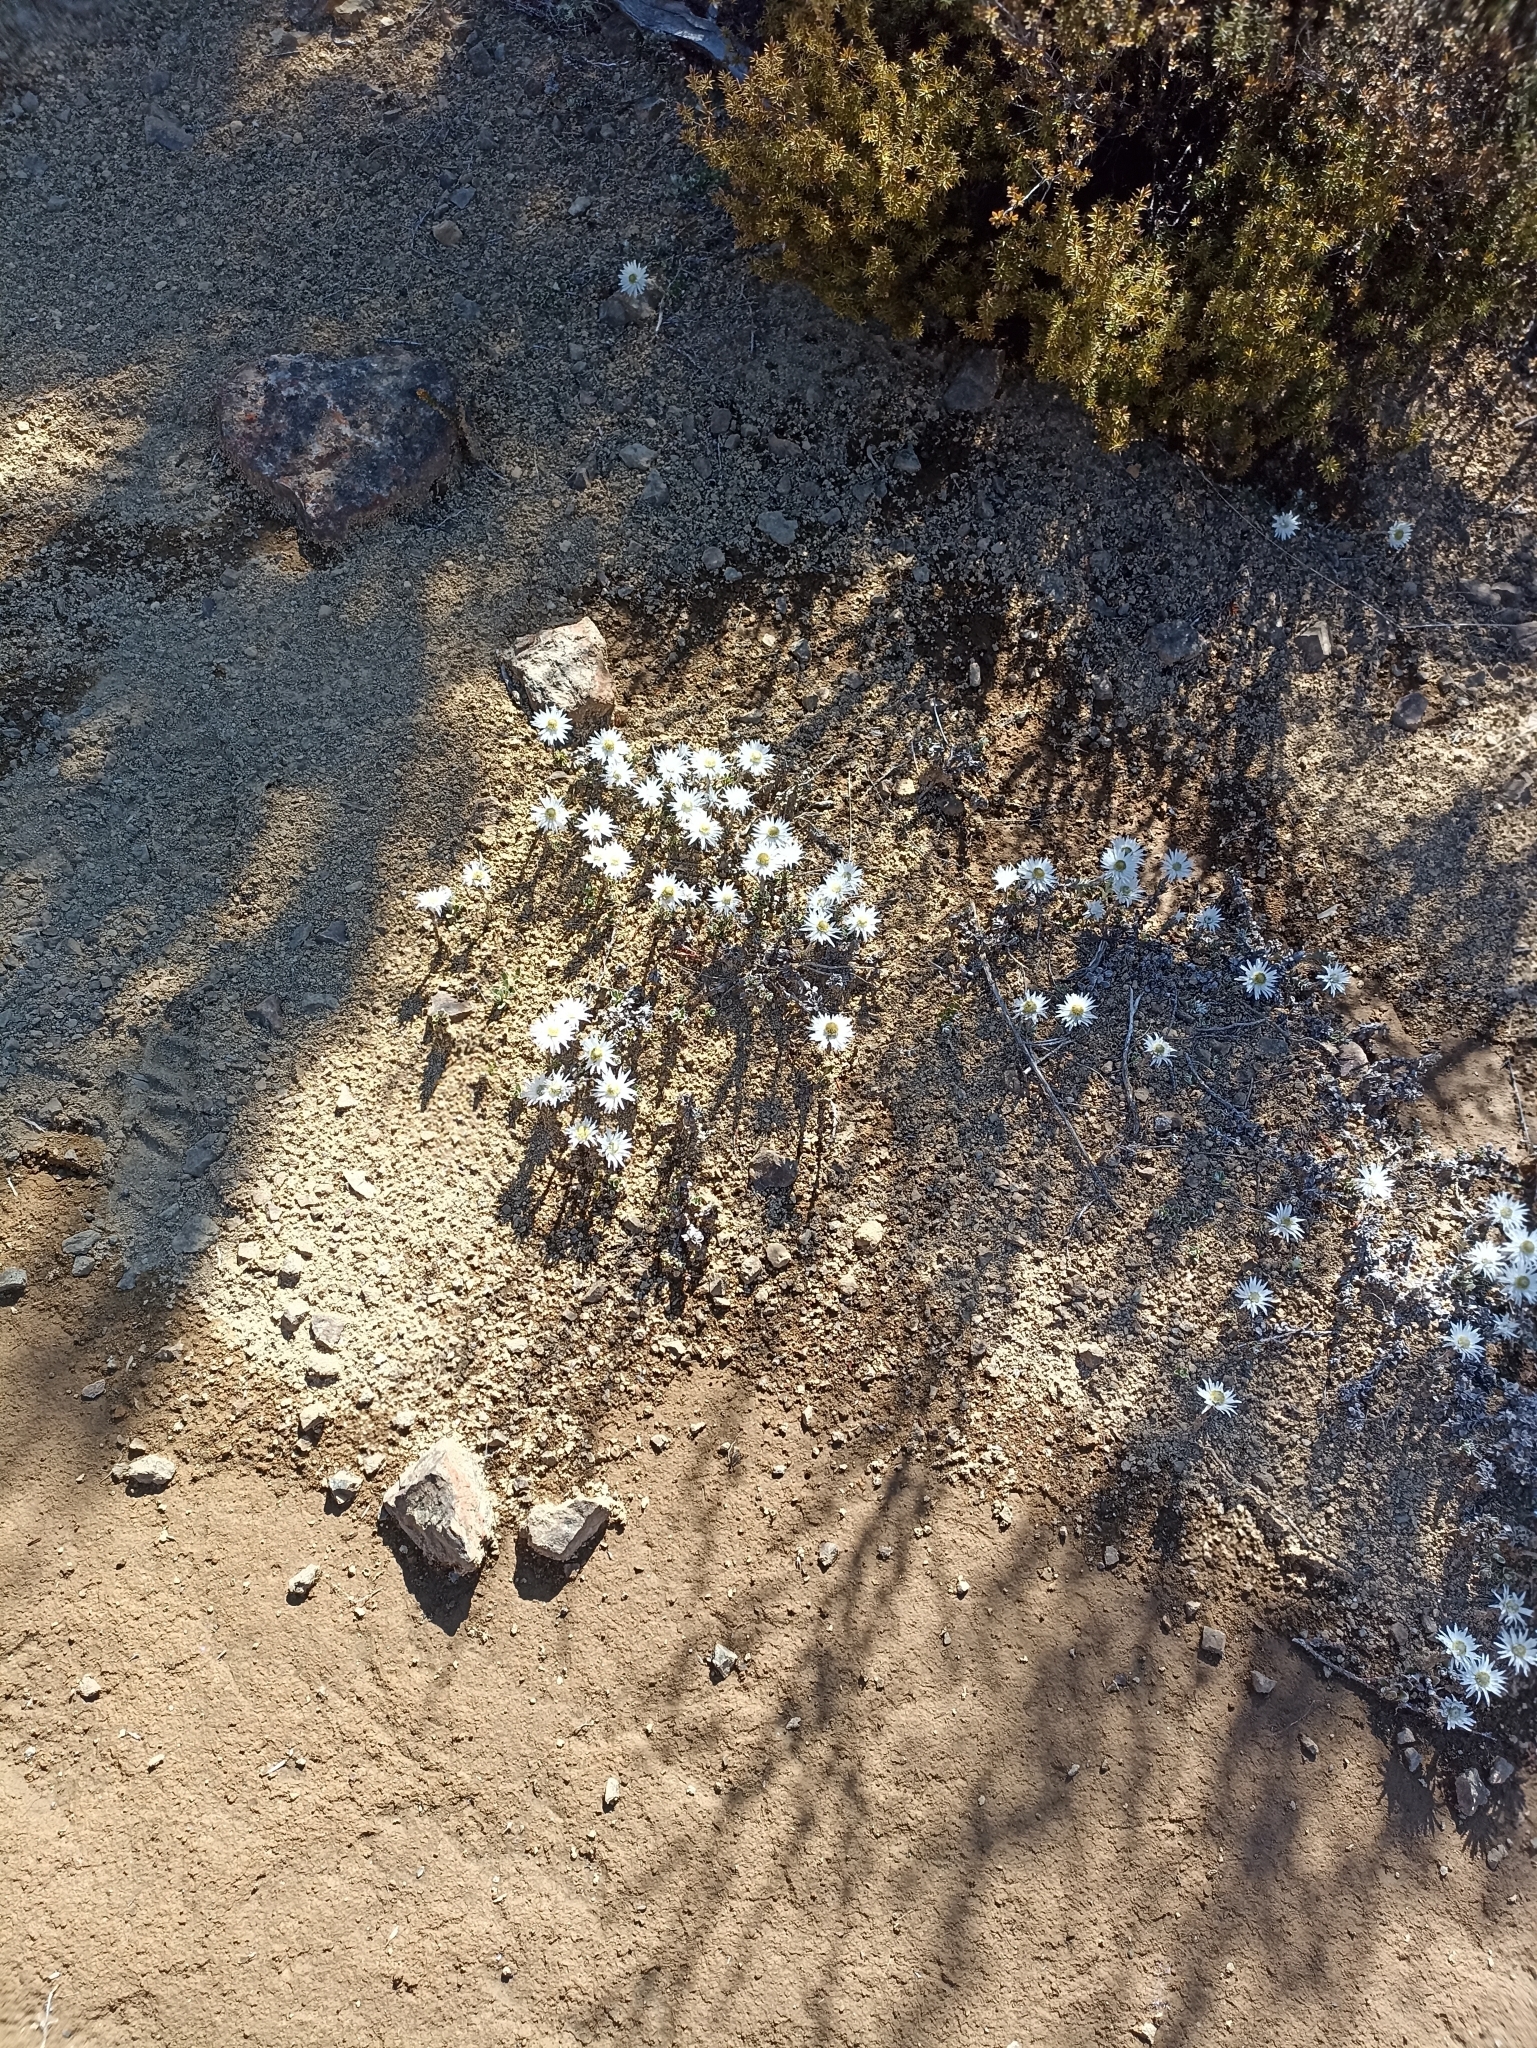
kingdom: Plantae
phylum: Tracheophyta
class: Magnoliopsida
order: Asterales
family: Asteraceae
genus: Anaphalioides
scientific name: Anaphalioides alpina
